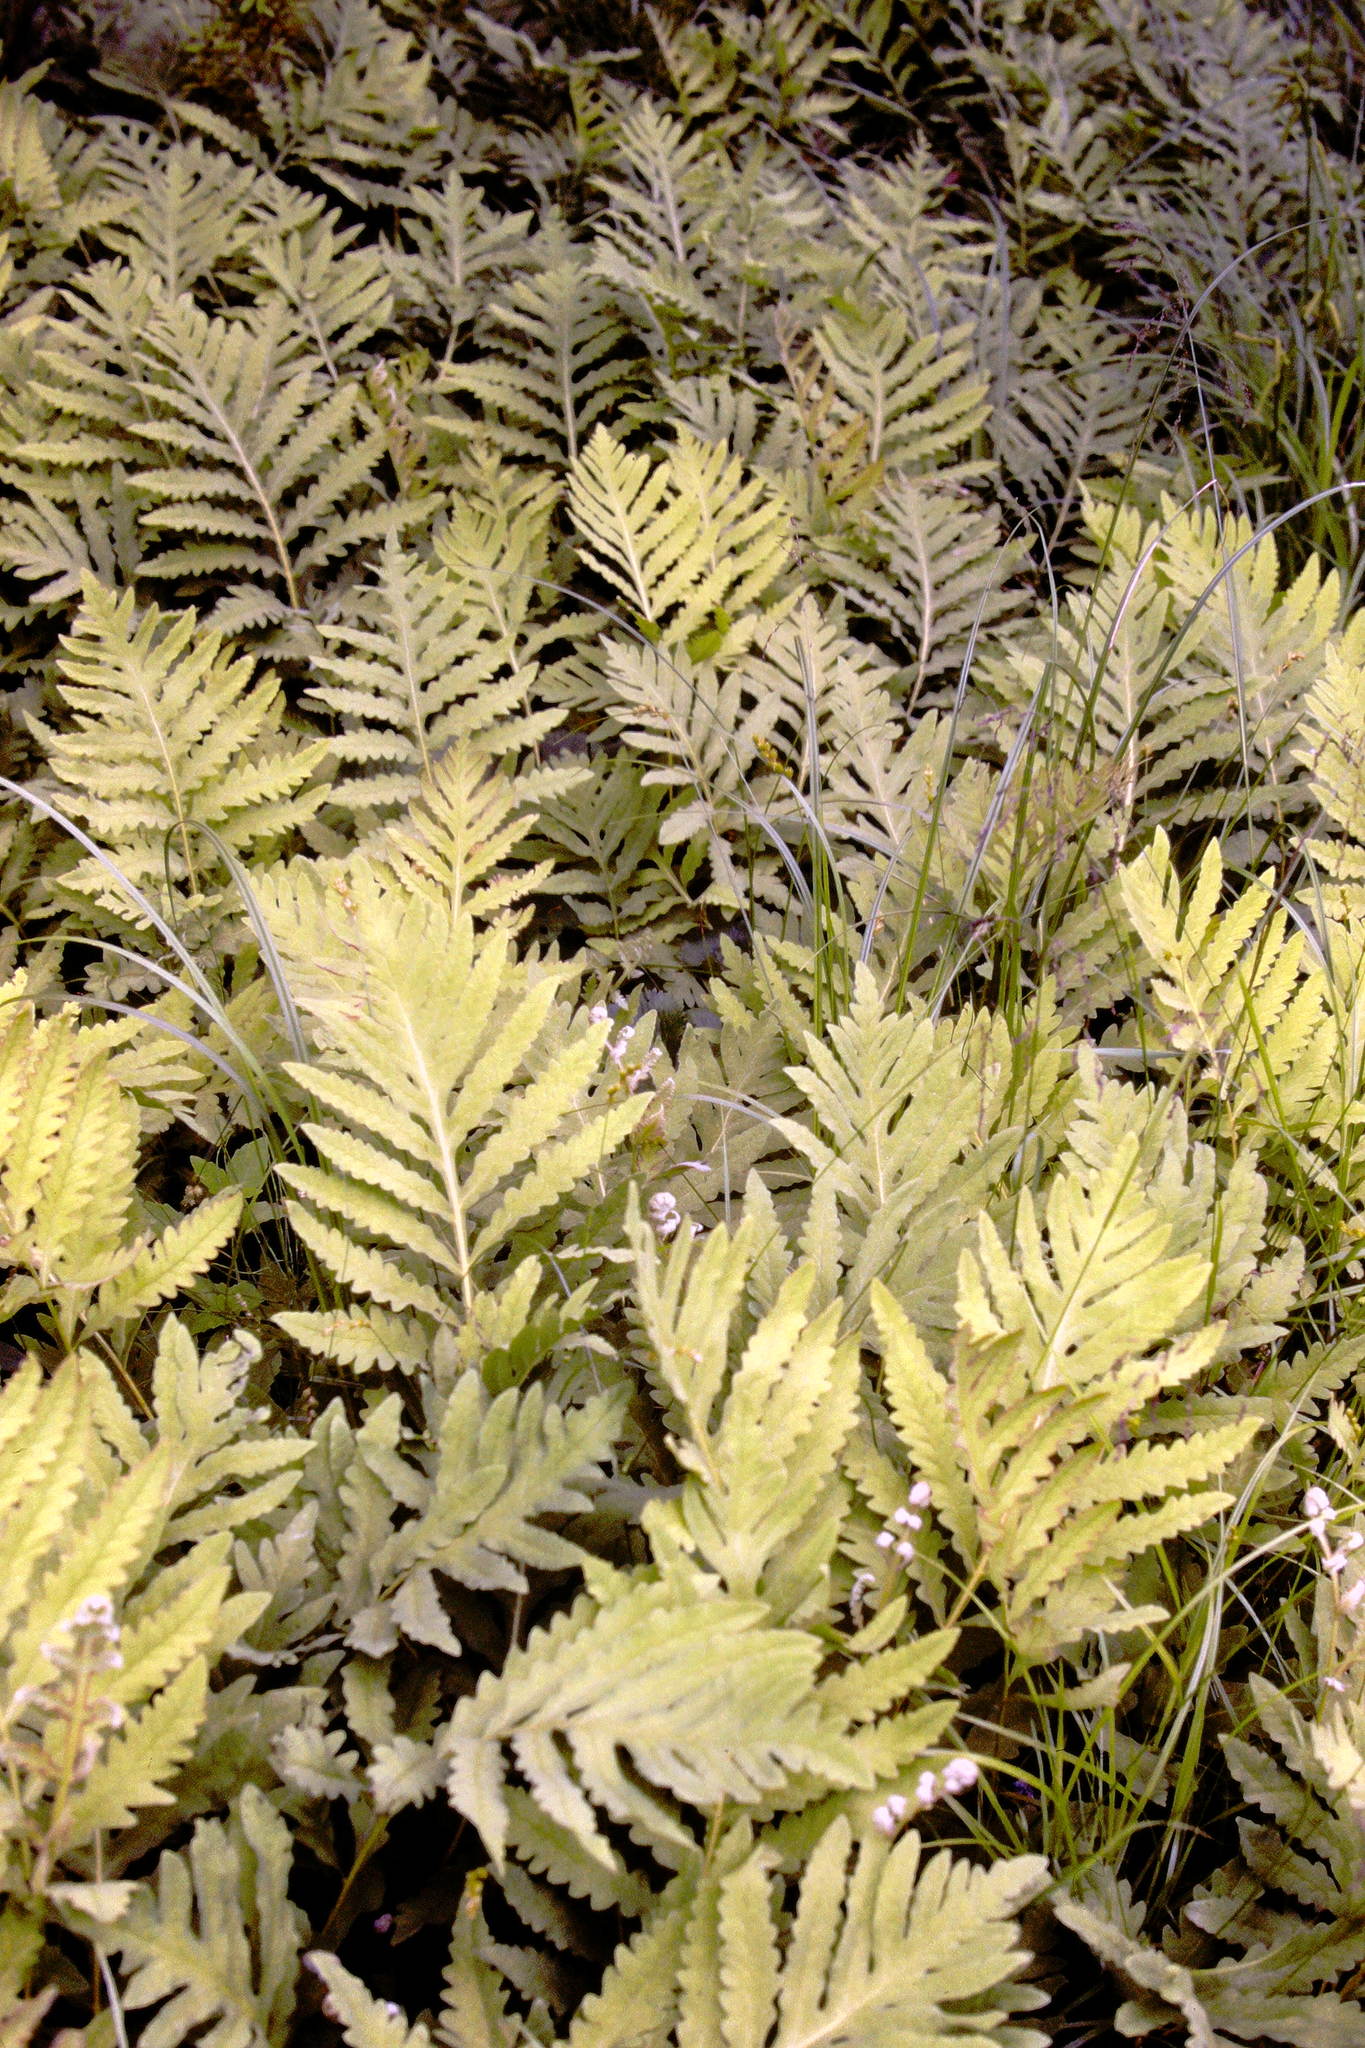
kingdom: Plantae
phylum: Tracheophyta
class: Polypodiopsida
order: Polypodiales
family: Onocleaceae
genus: Onoclea
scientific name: Onoclea sensibilis
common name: Sensitive fern
